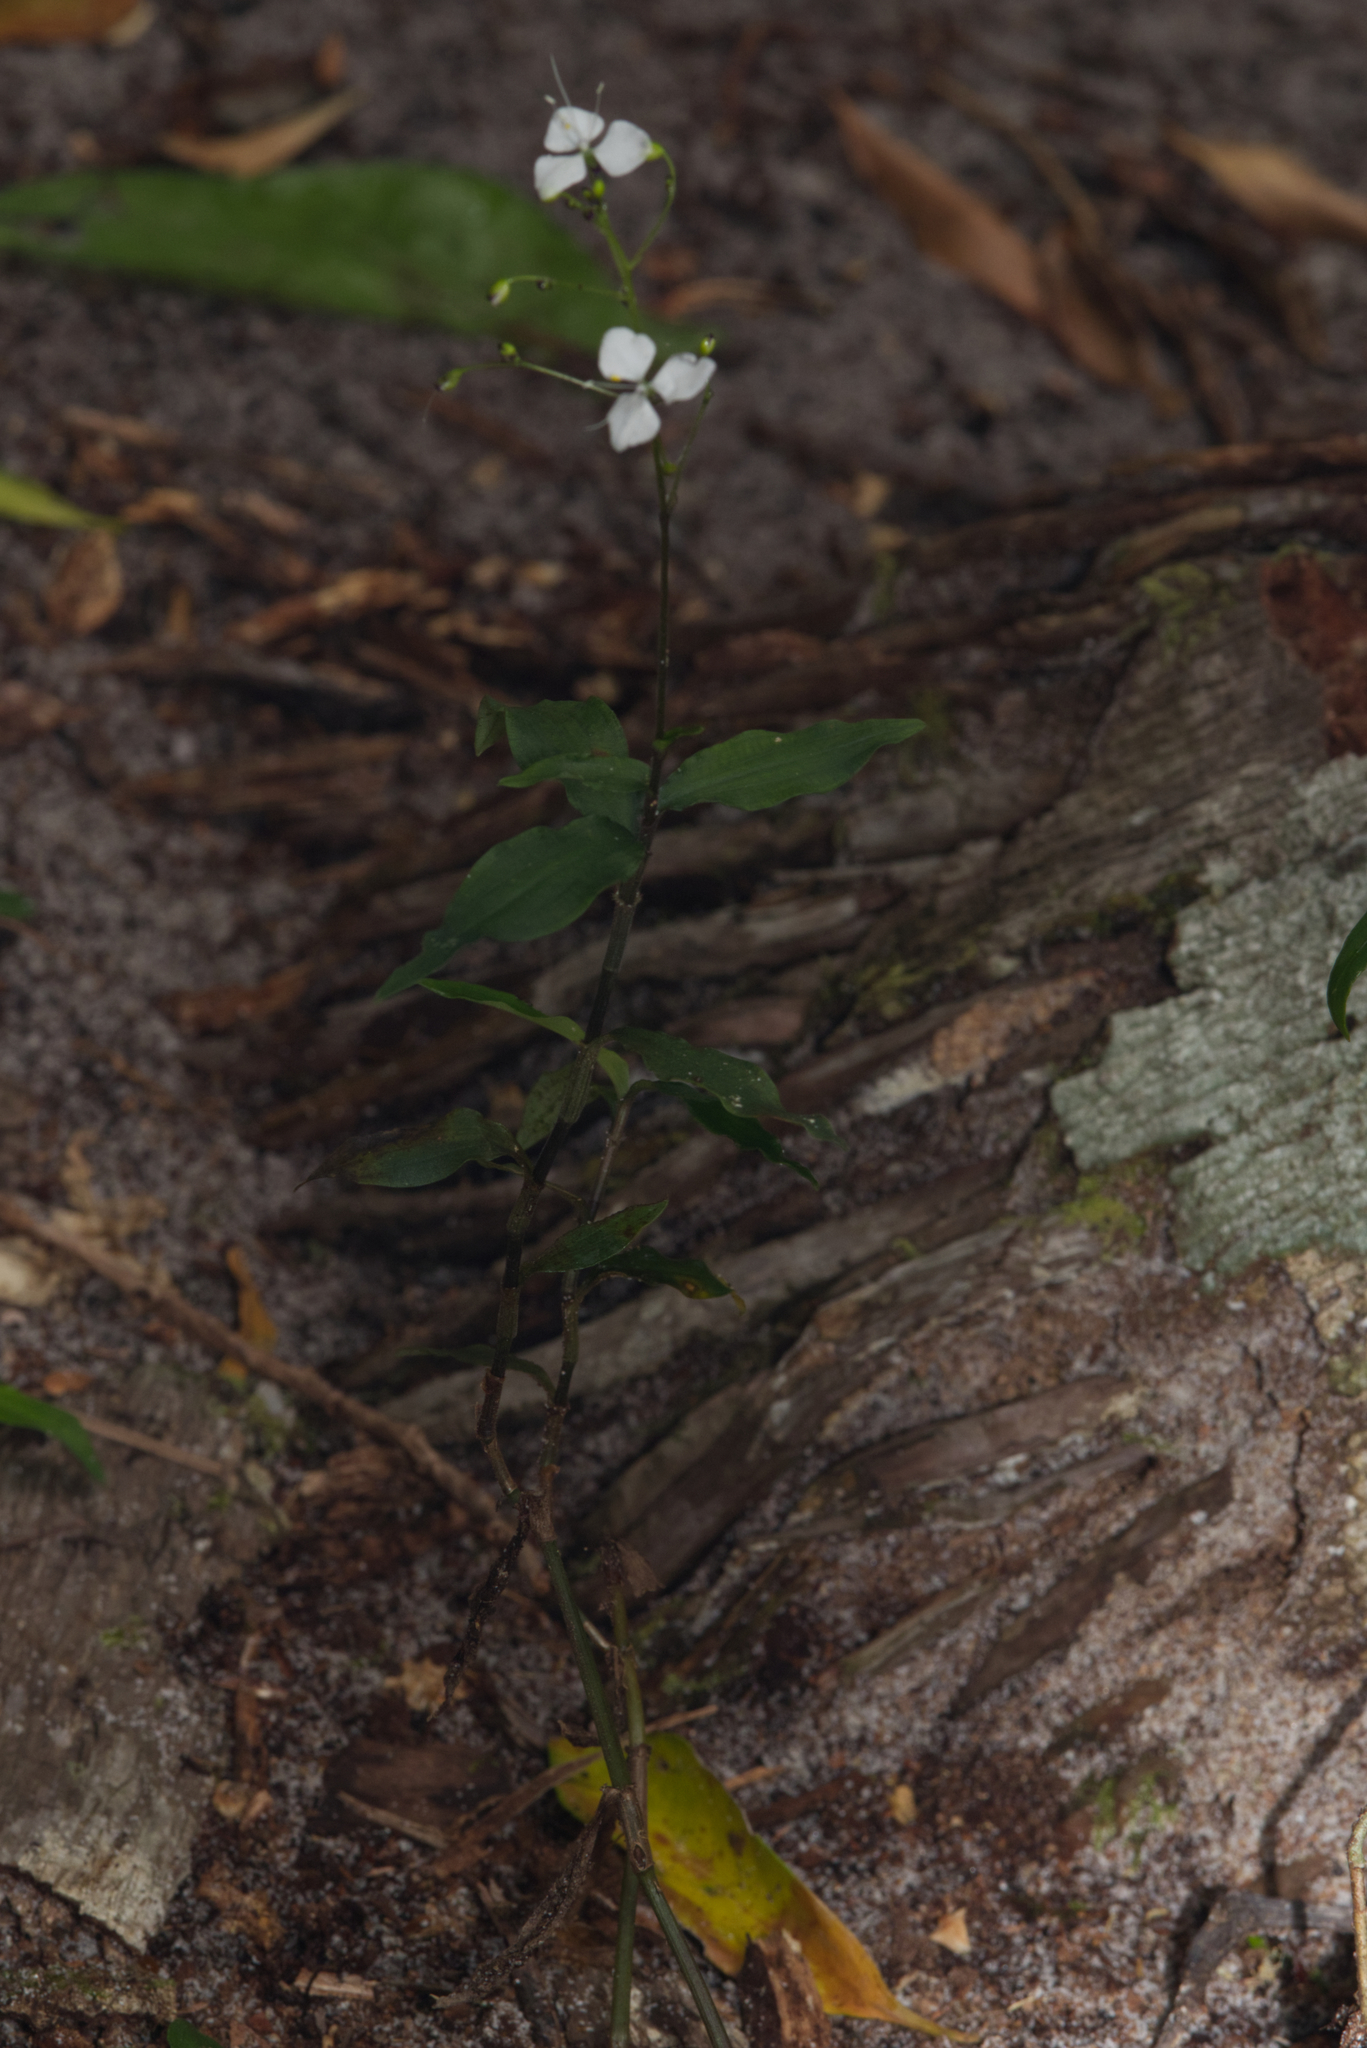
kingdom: Plantae
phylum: Tracheophyta
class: Liliopsida
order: Commelinales
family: Commelinaceae
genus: Aneilema
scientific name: Aneilema acuminatum
